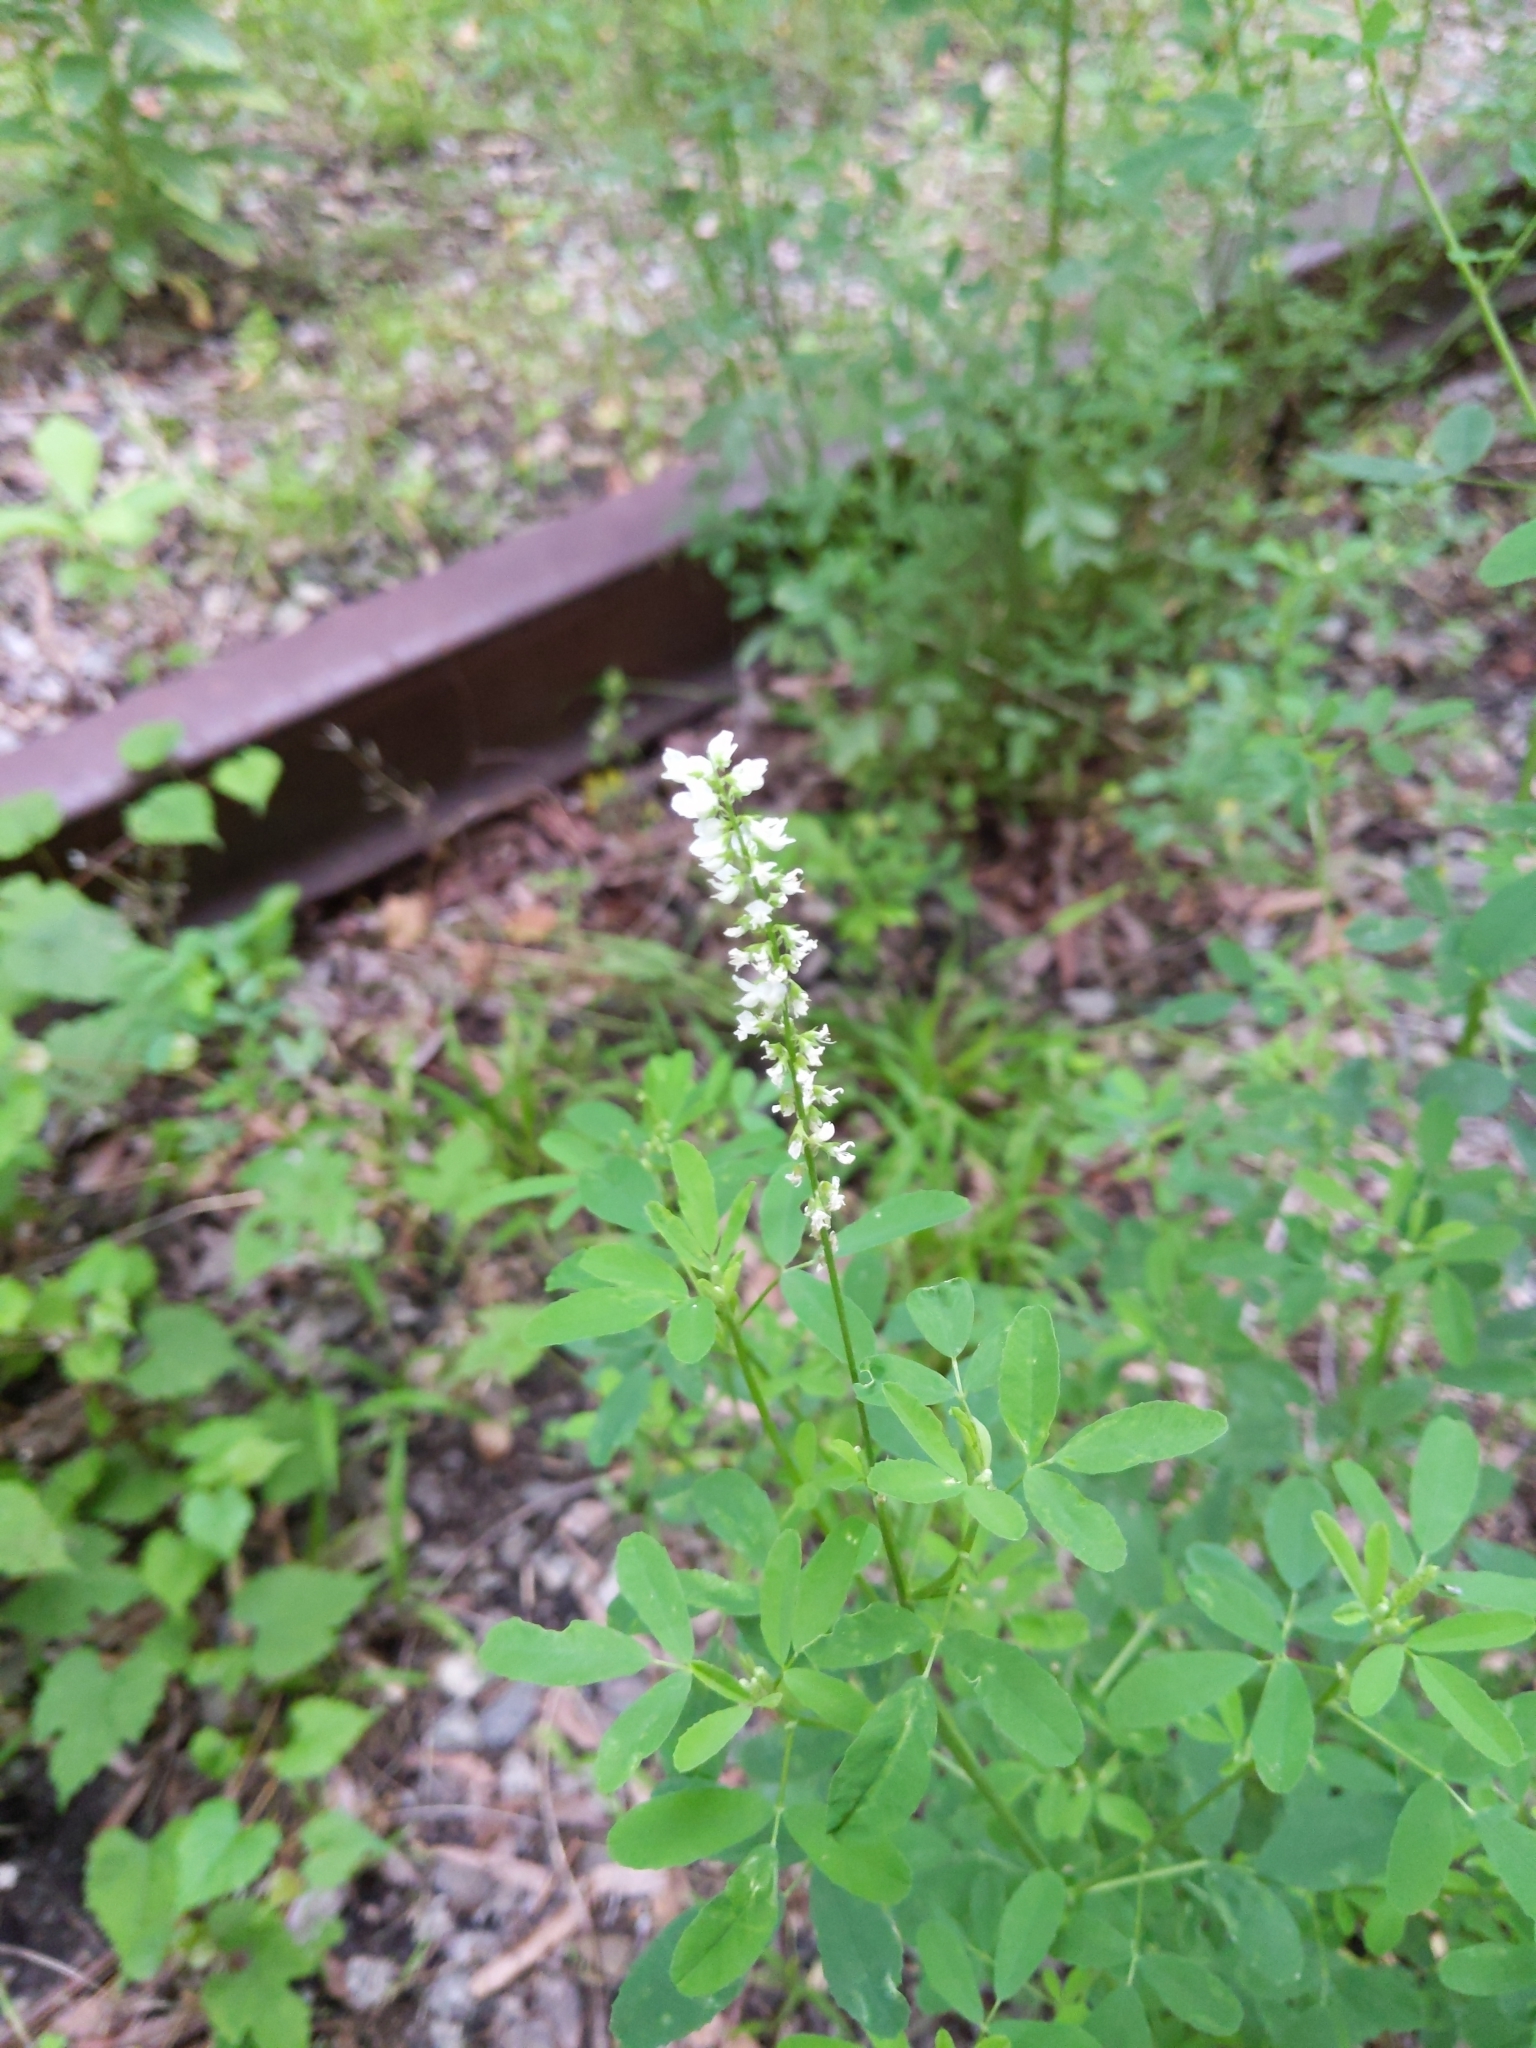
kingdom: Plantae
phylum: Tracheophyta
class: Magnoliopsida
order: Fabales
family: Fabaceae
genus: Melilotus
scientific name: Melilotus albus
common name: White melilot
